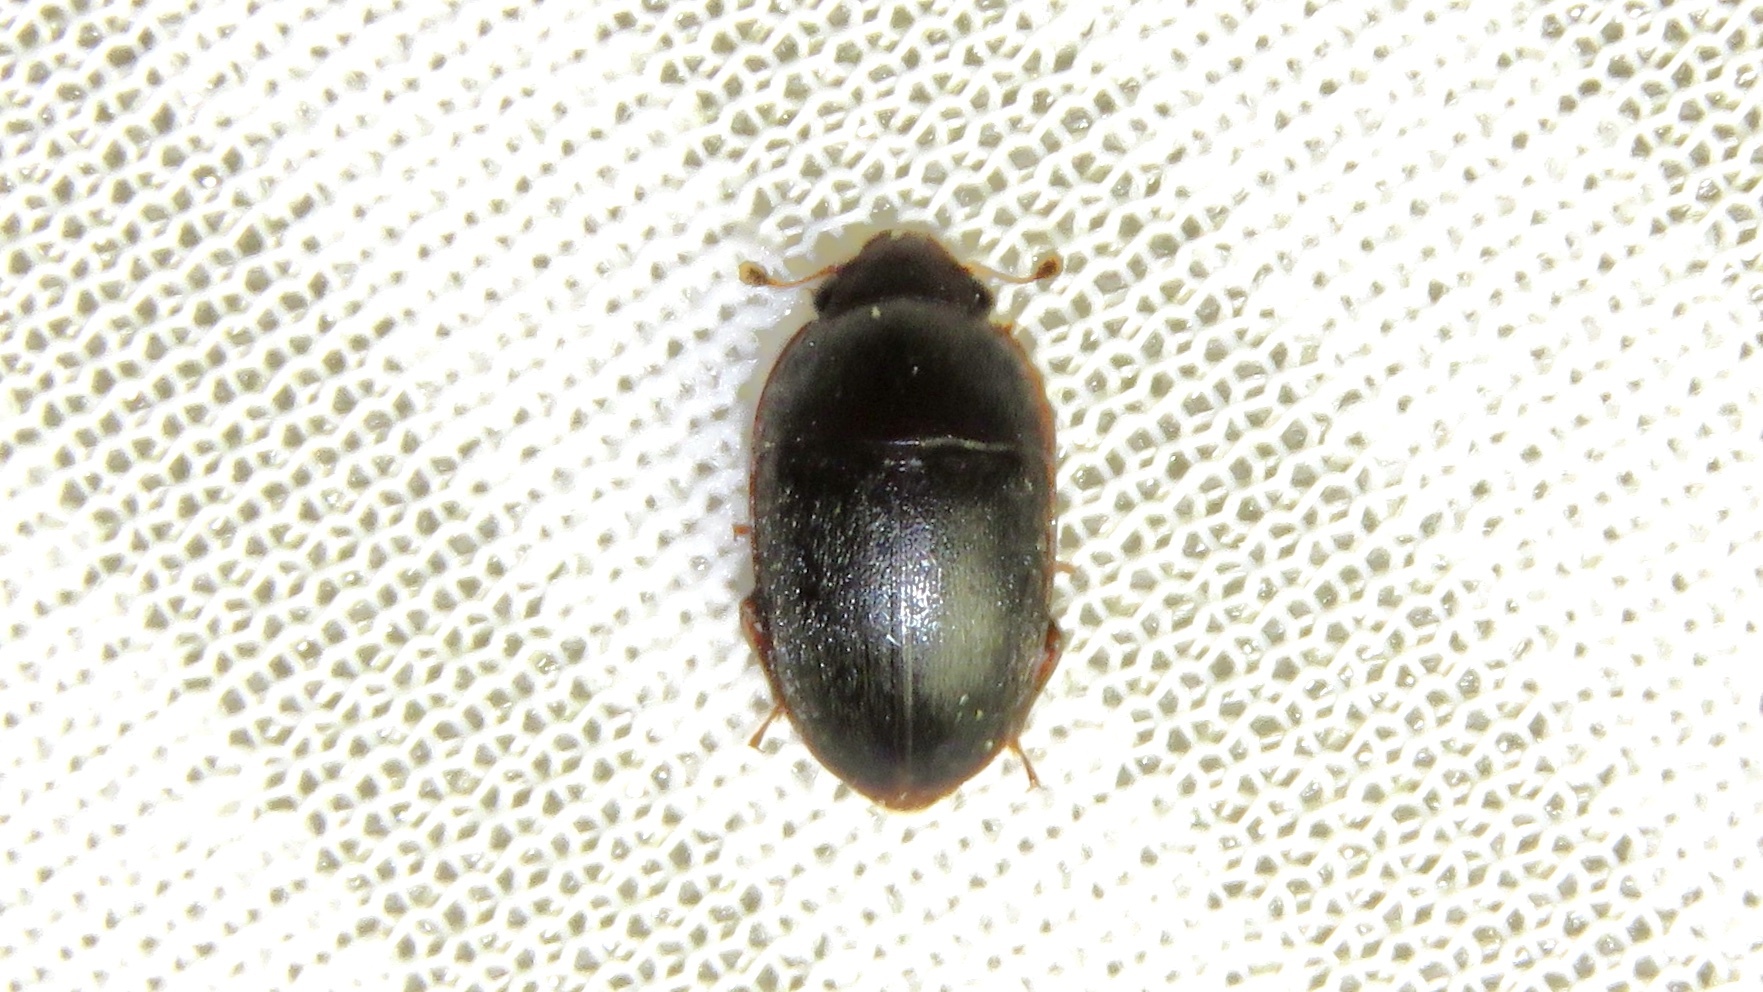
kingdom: Animalia
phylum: Arthropoda
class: Insecta
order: Coleoptera
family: Nitidulidae
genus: Cryptarcha
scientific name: Cryptarcha ampla
